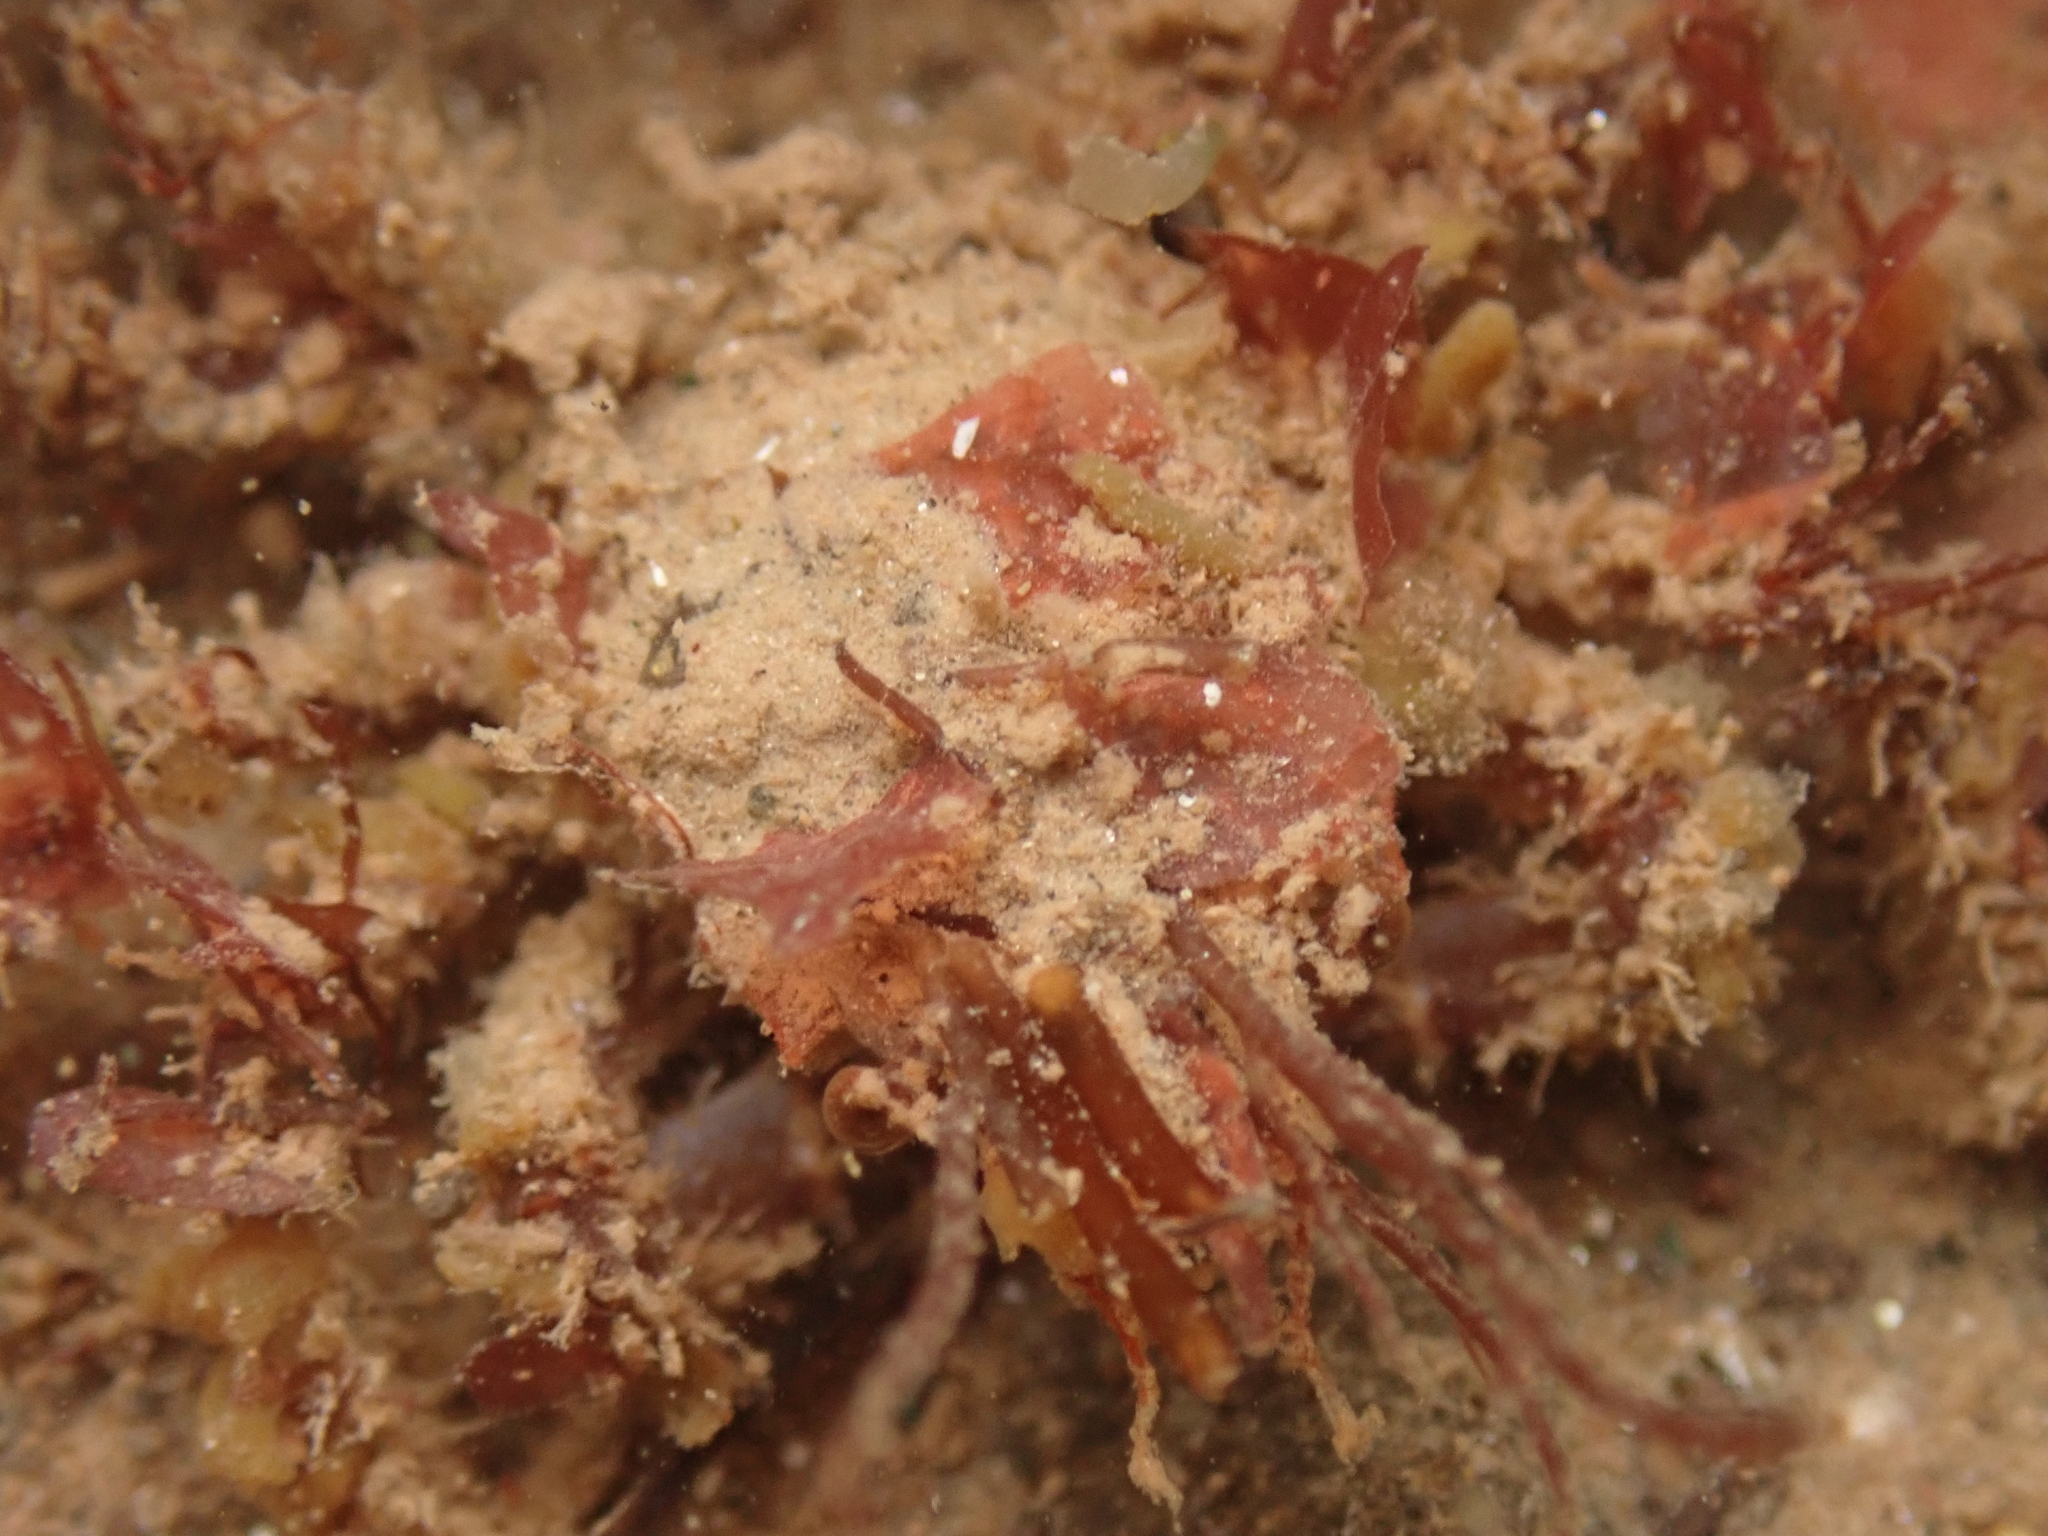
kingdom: Animalia
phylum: Arthropoda
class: Malacostraca
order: Decapoda
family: Oregoniidae
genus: Hyas
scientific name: Hyas araneus
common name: Great spider crab
